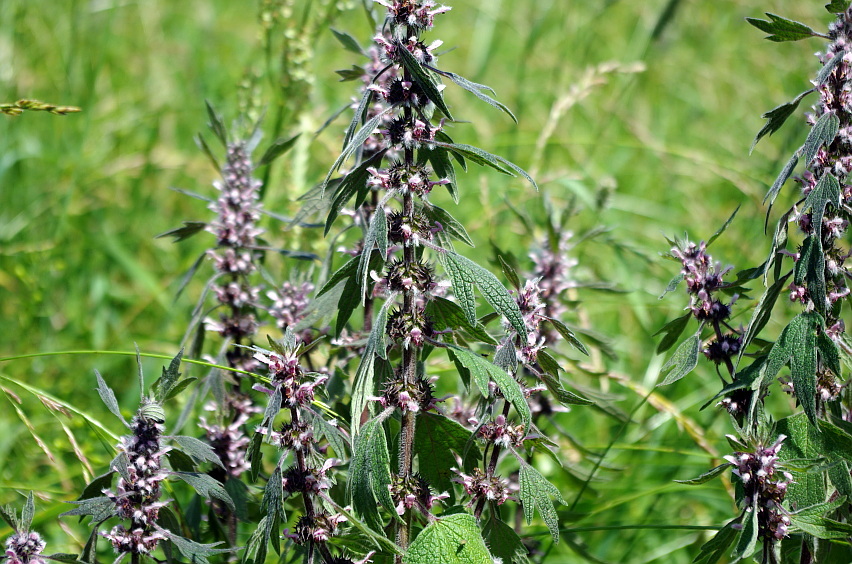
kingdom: Plantae
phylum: Tracheophyta
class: Magnoliopsida
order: Lamiales
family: Lamiaceae
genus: Leonurus
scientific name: Leonurus quinquelobatus
